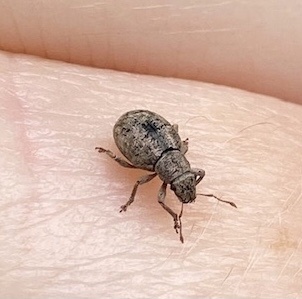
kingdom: Animalia
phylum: Arthropoda
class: Insecta
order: Coleoptera
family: Curculionidae
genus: Strophosoma
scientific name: Strophosoma capitatum
